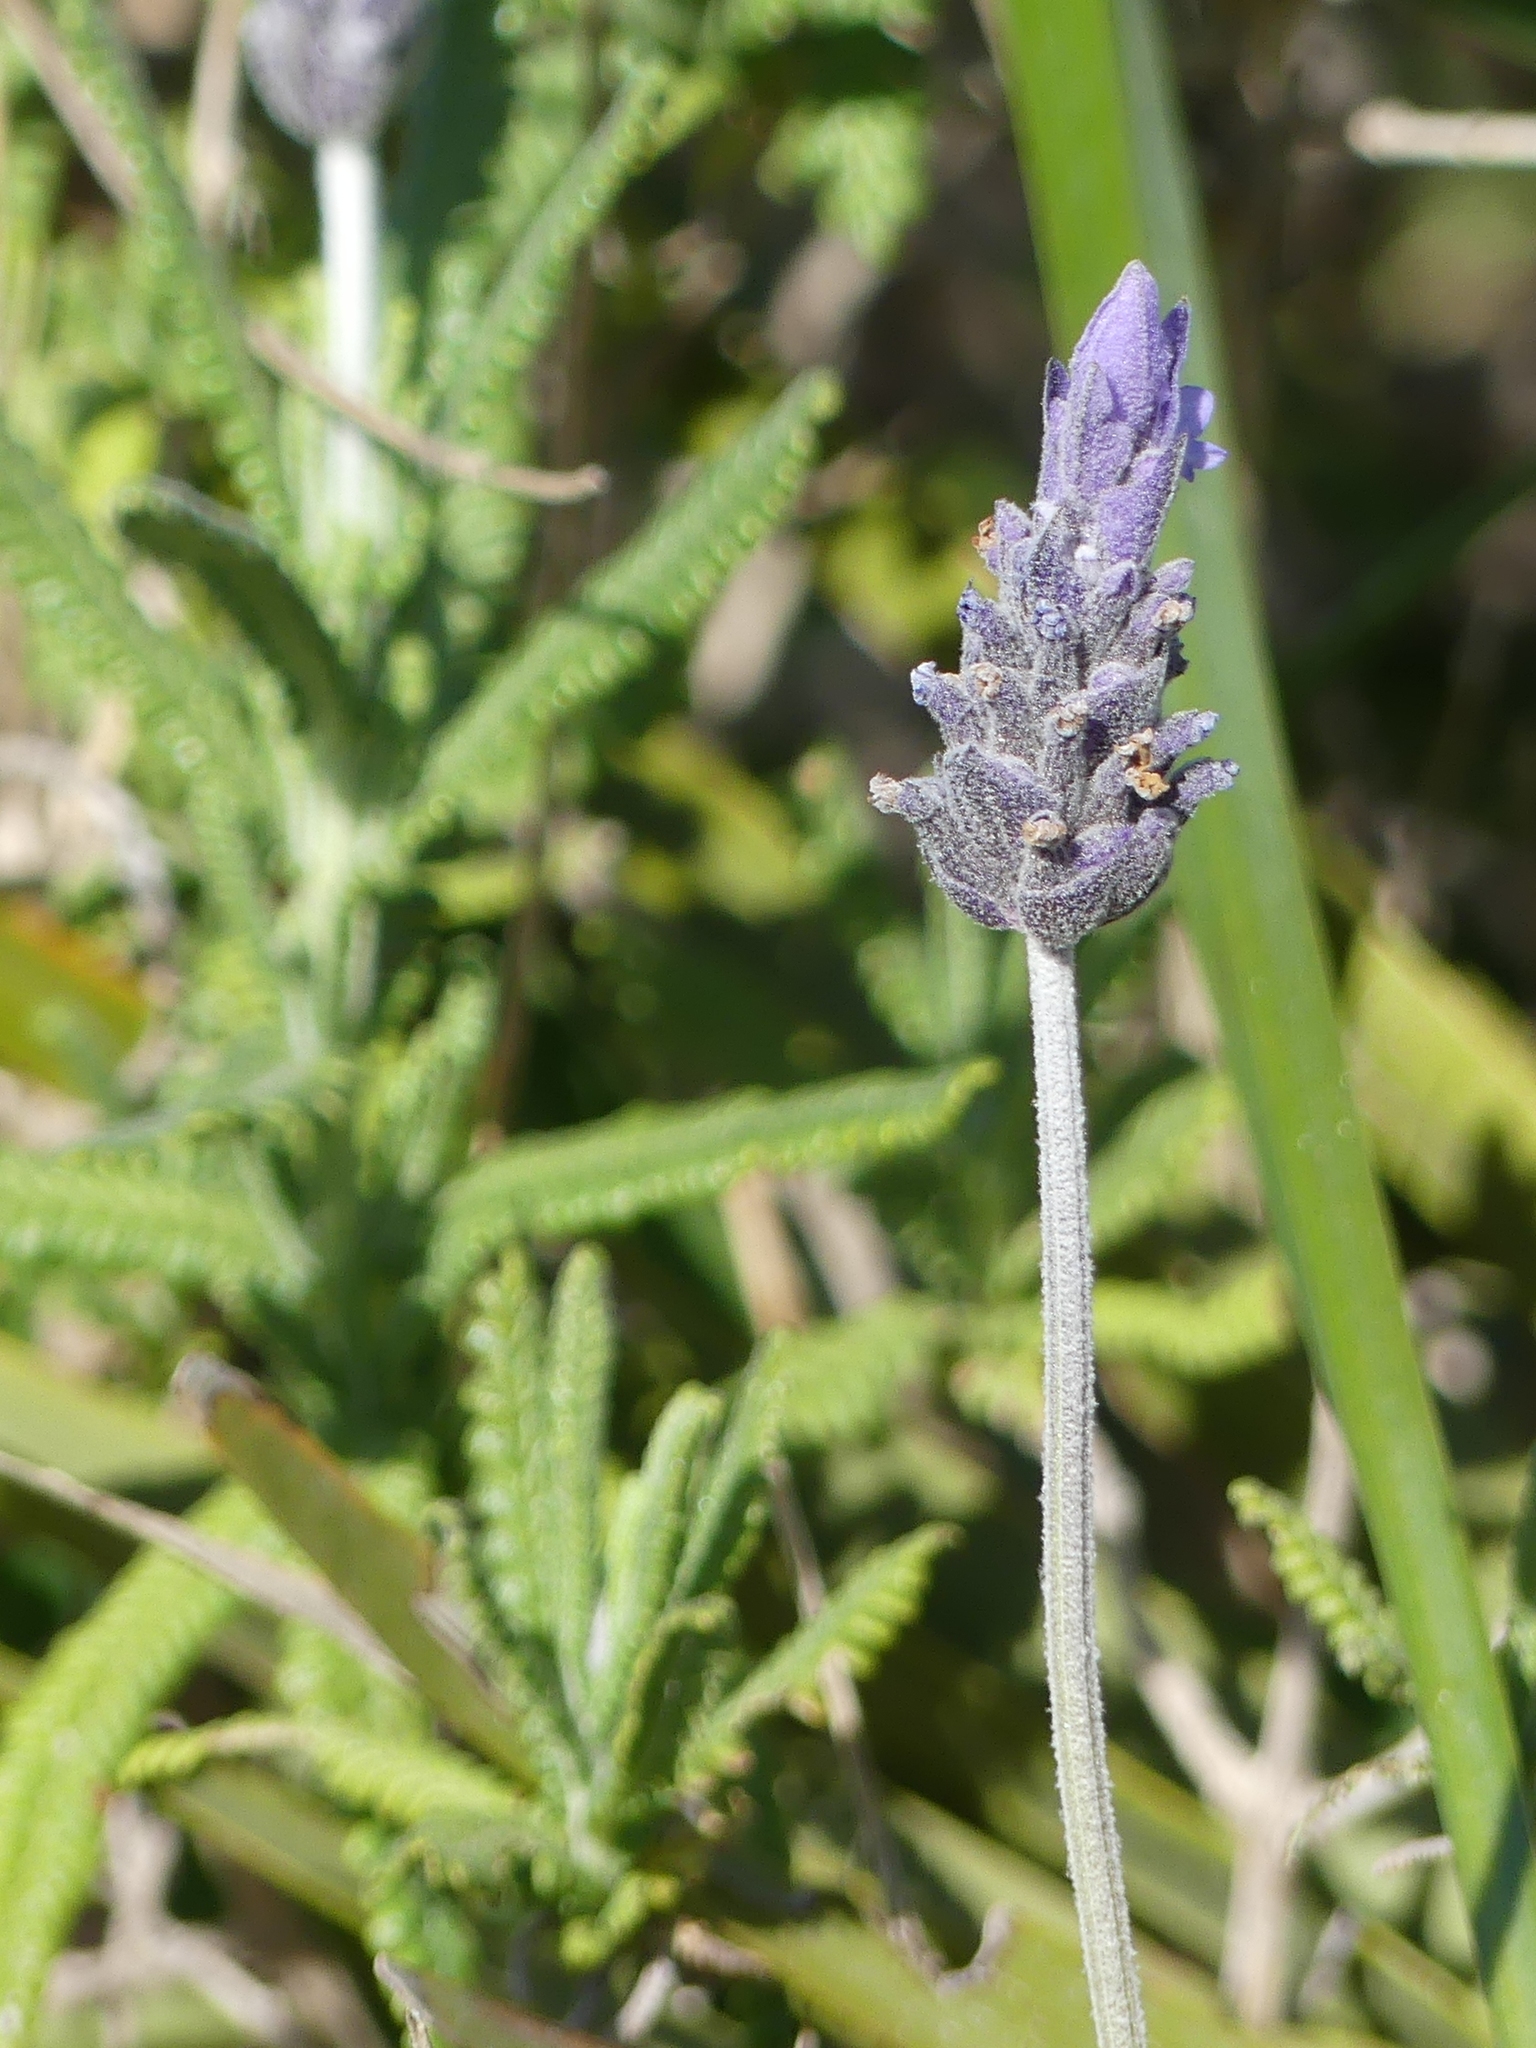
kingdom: Plantae
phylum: Tracheophyta
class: Magnoliopsida
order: Lamiales
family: Lamiaceae
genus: Lavandula
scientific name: Lavandula dentata
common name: French lavender
